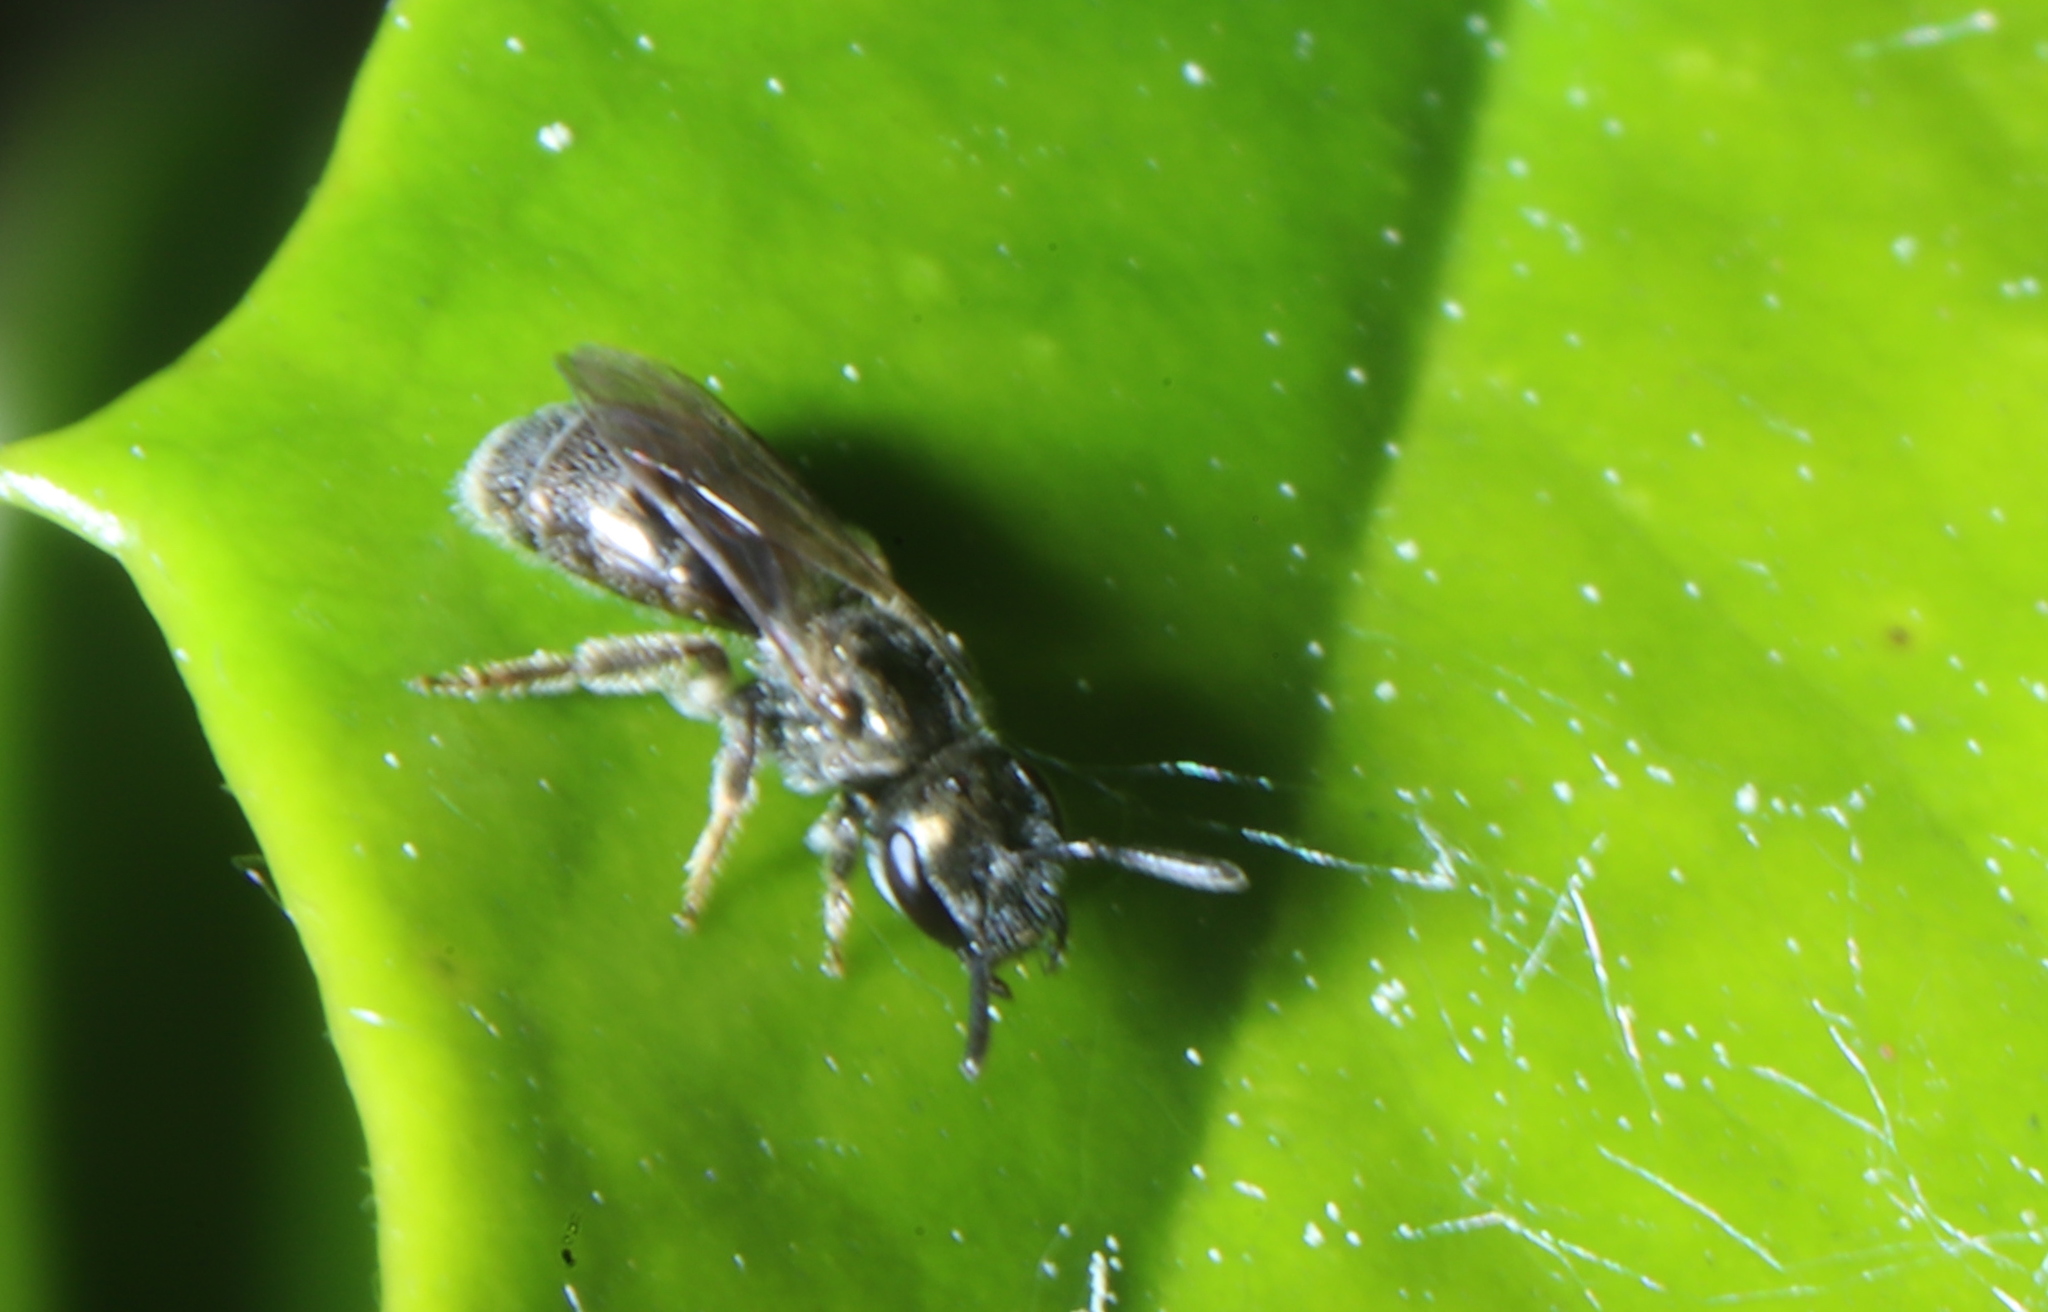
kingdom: Animalia
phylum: Arthropoda
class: Insecta
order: Hymenoptera
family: Halictidae
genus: Dialictus
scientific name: Dialictus
